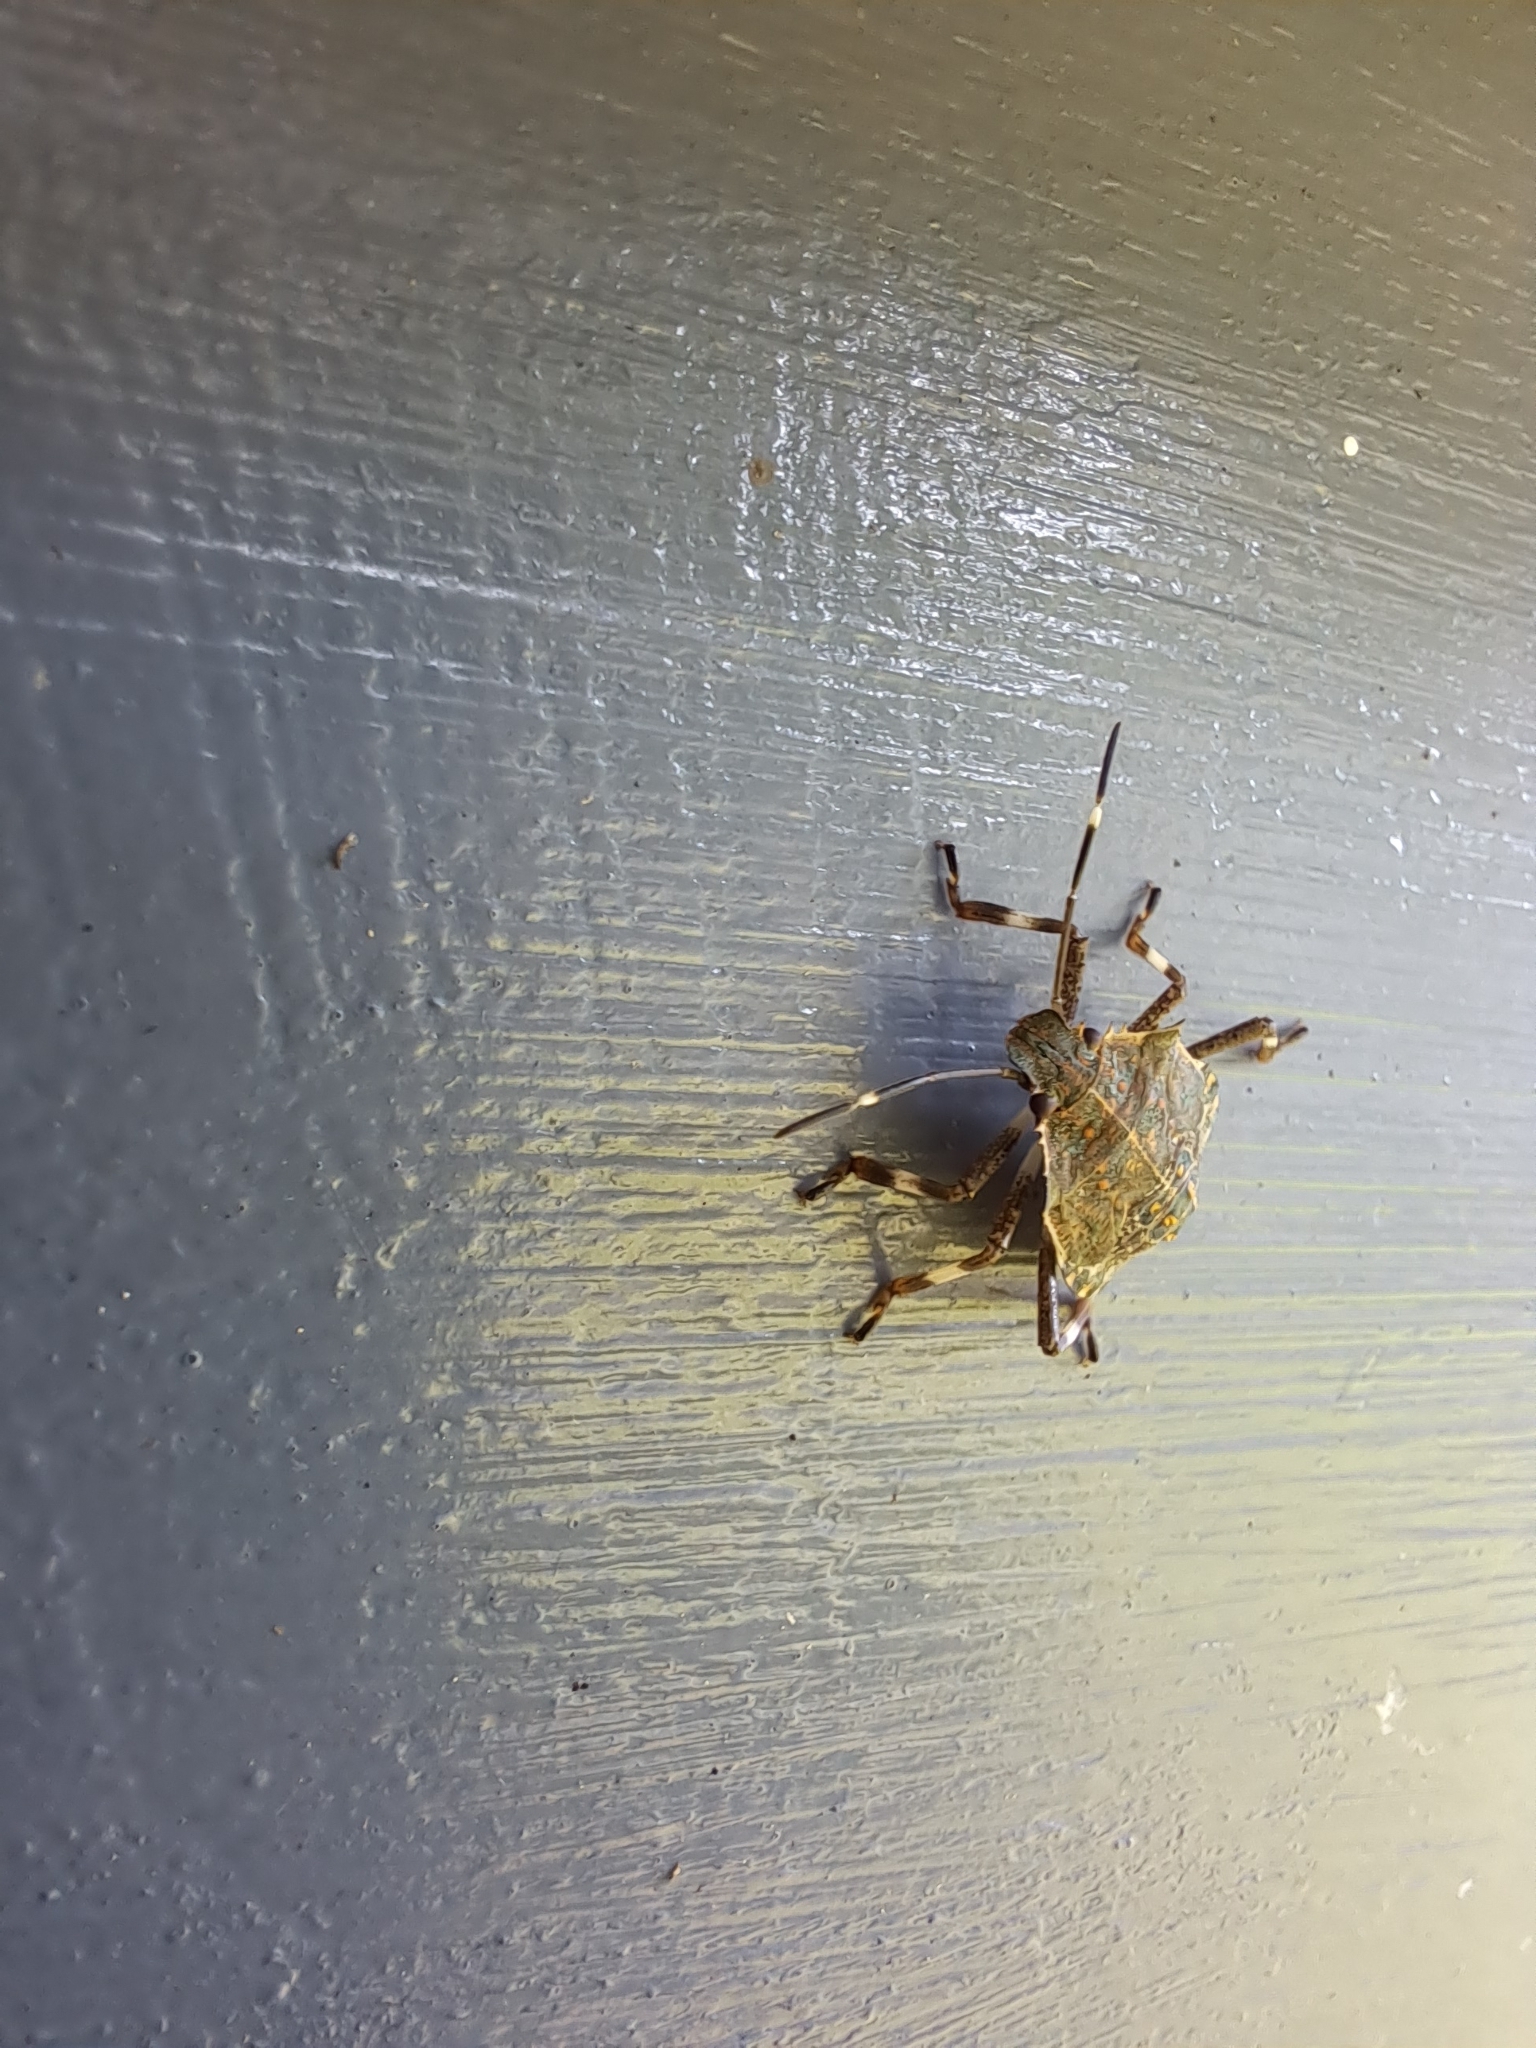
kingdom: Animalia
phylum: Arthropoda
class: Insecta
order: Hemiptera
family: Pentatomidae
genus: Halyomorpha
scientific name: Halyomorpha halys
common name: Brown marmorated stink bug
